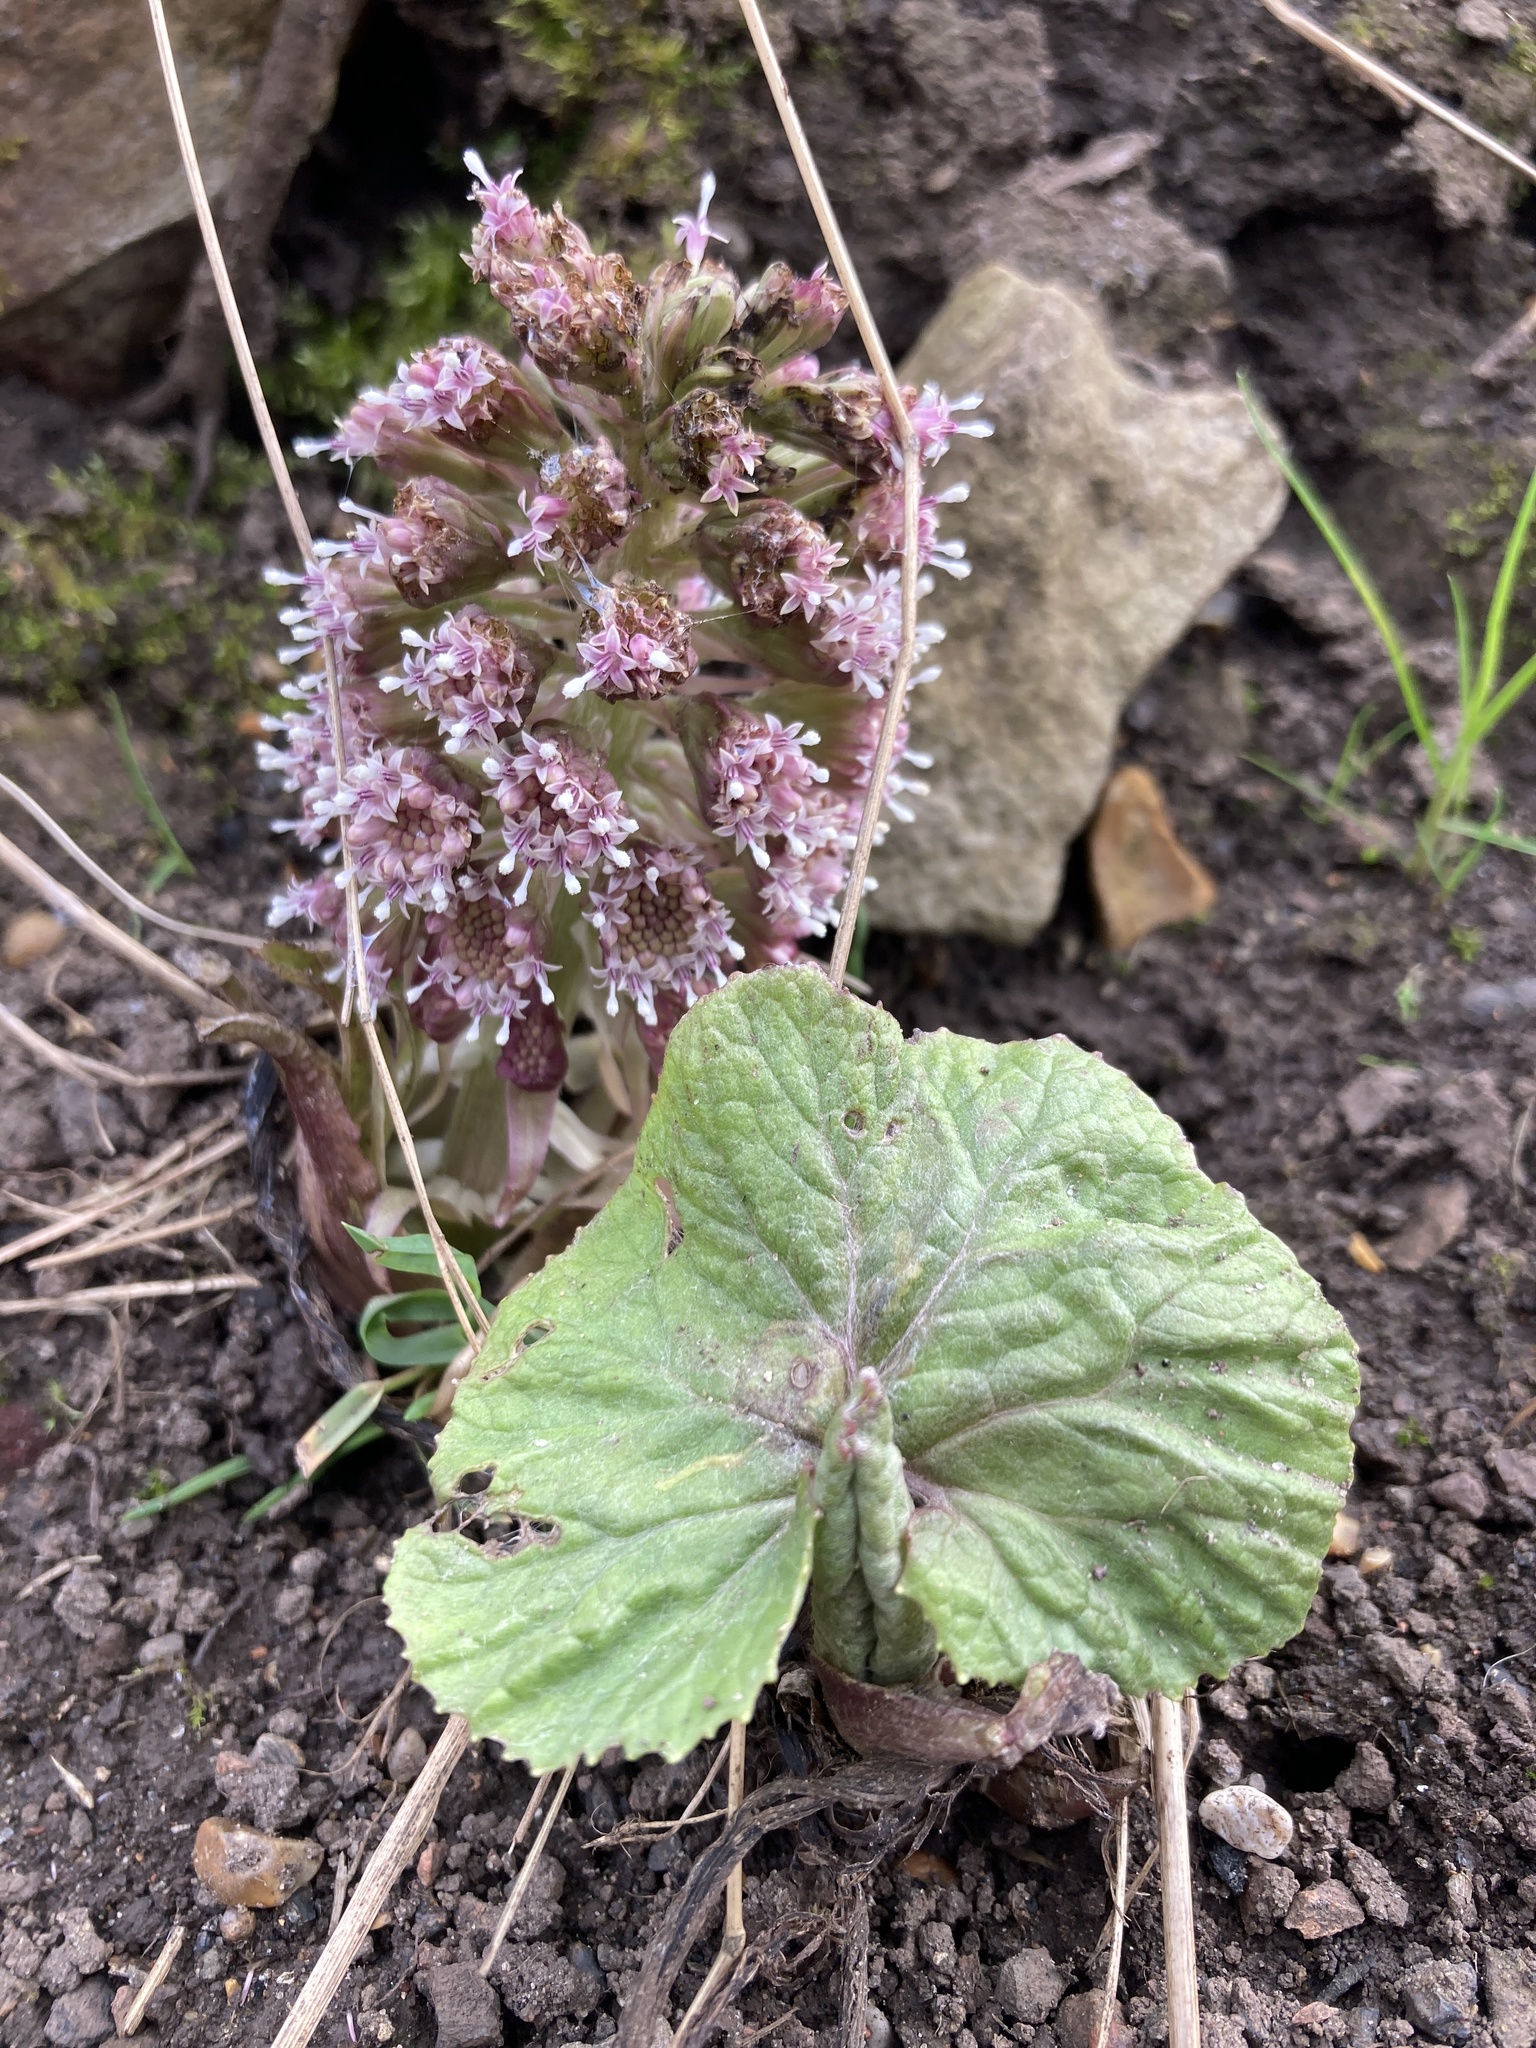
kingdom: Plantae
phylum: Tracheophyta
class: Magnoliopsida
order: Asterales
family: Asteraceae
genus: Petasites
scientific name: Petasites hybridus
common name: Butterbur
